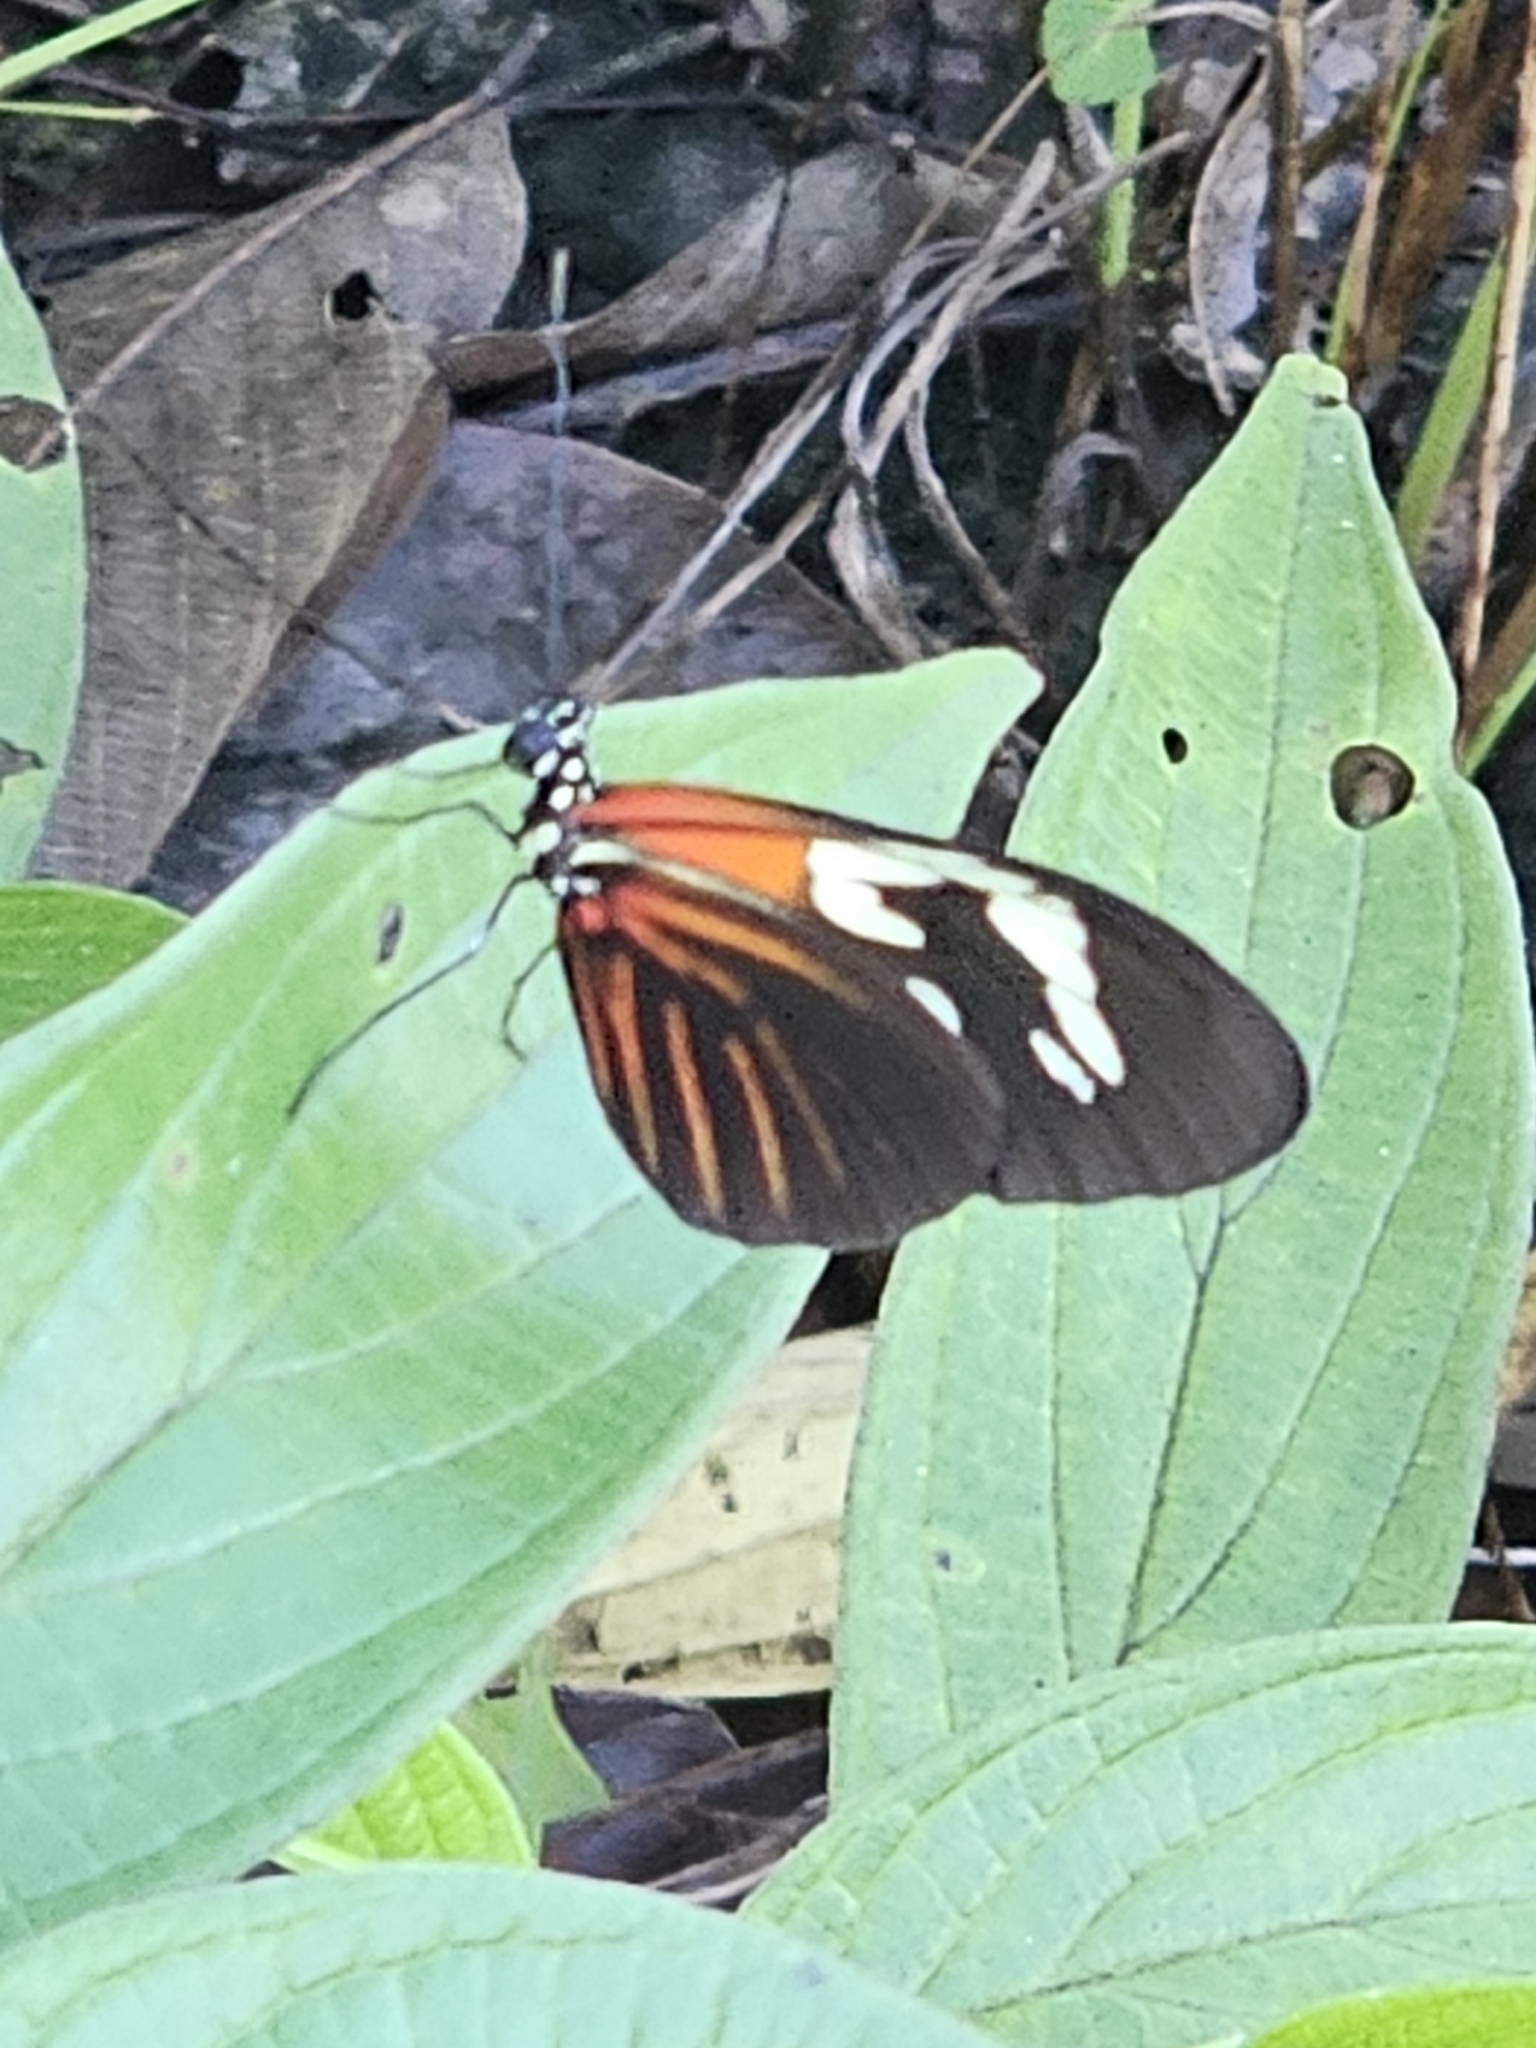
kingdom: Animalia
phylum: Arthropoda
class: Insecta
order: Lepidoptera
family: Nymphalidae
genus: Heliconius
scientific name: Heliconius erato
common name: Common patch longwing
